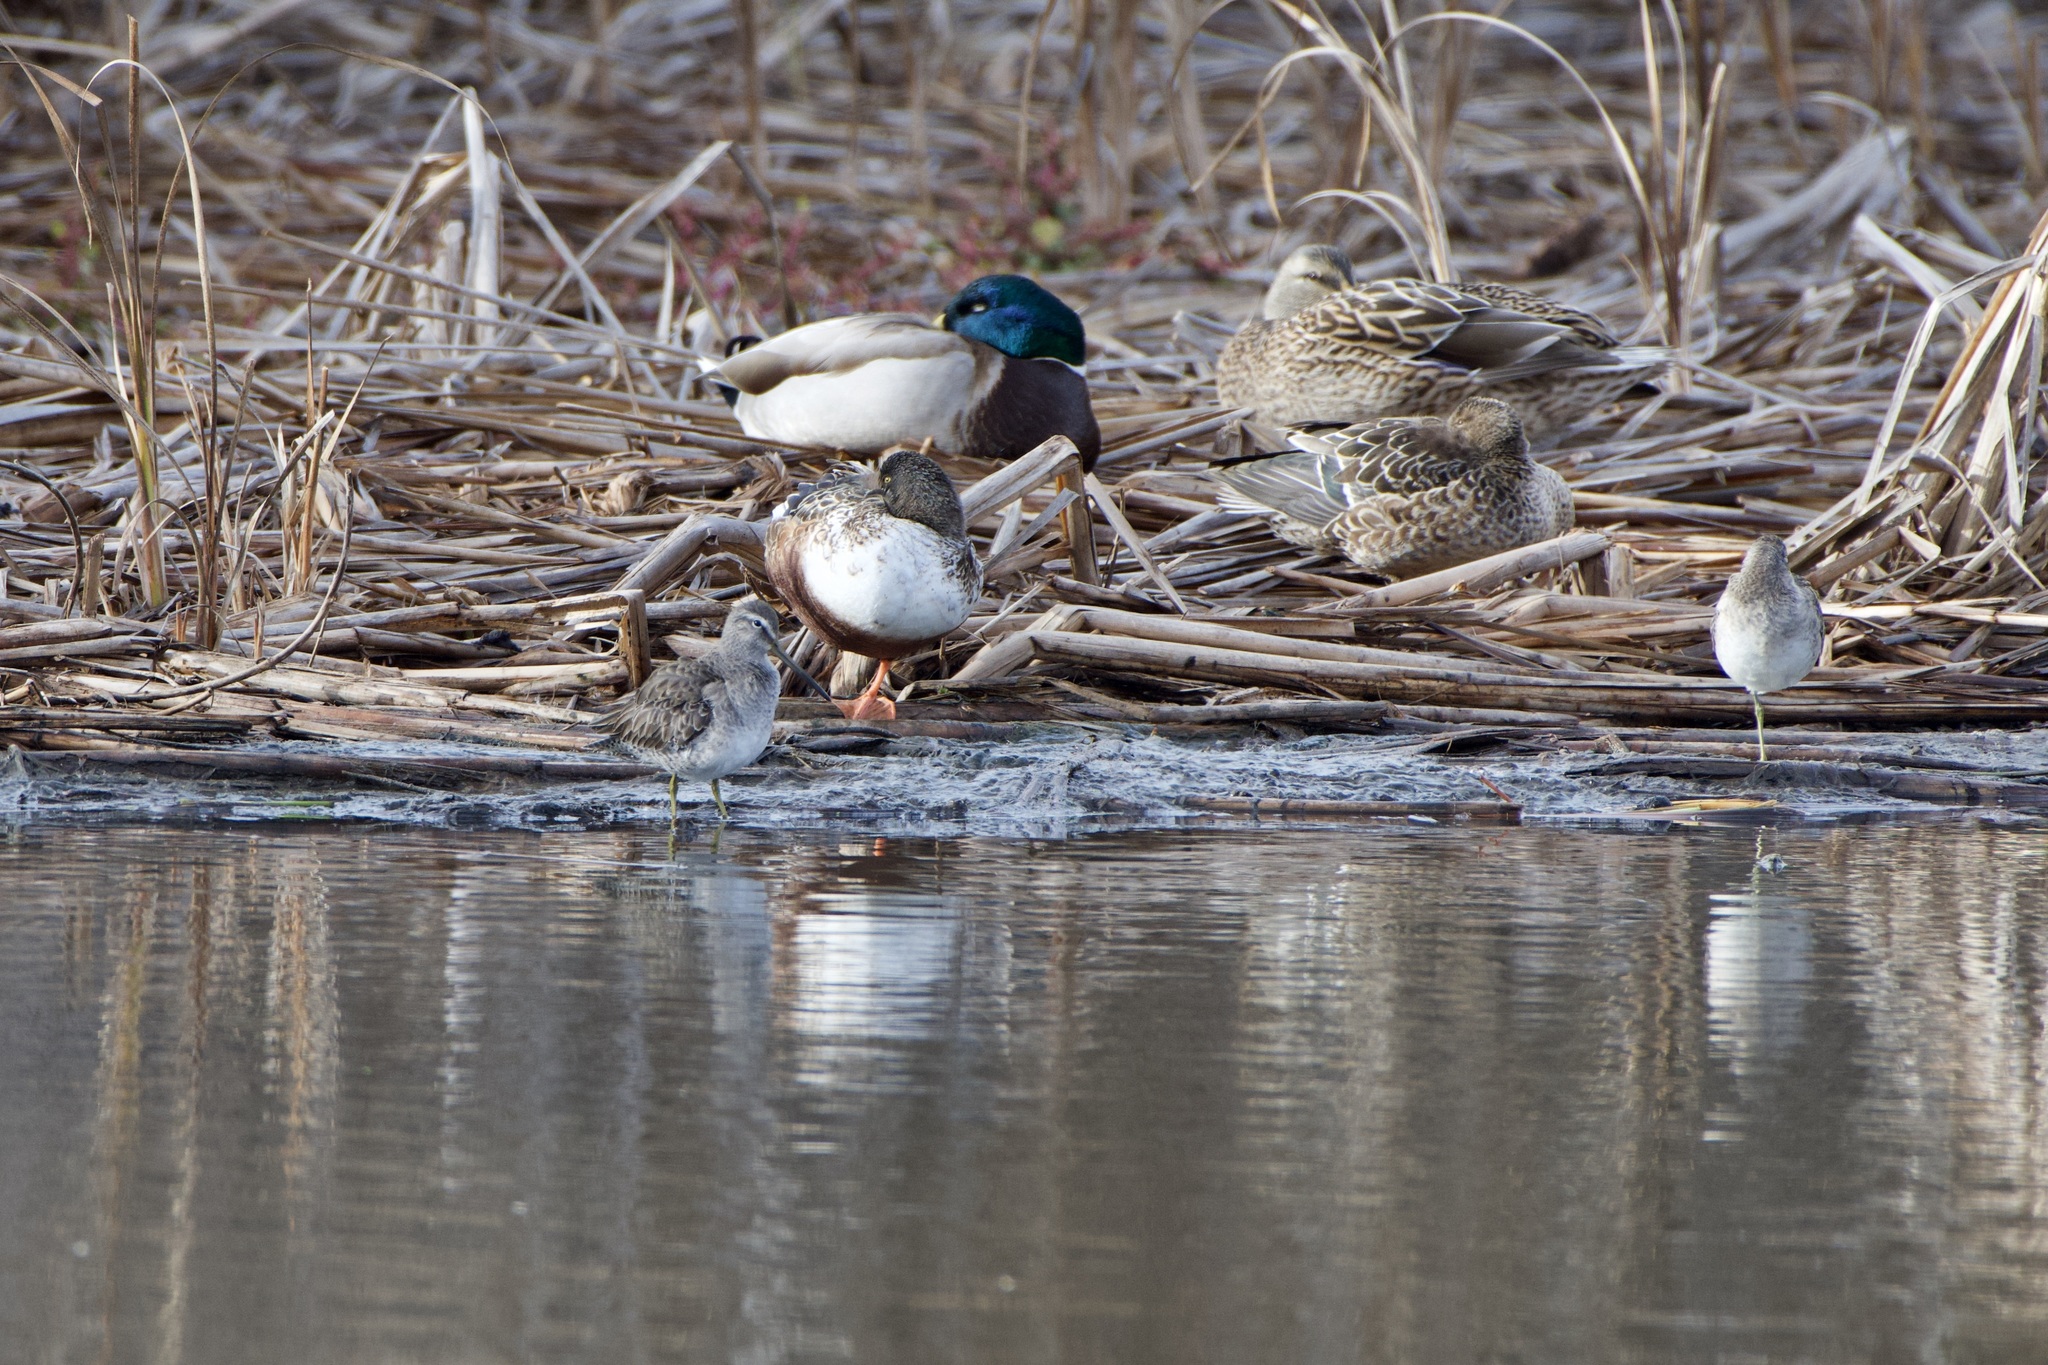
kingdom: Animalia
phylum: Chordata
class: Aves
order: Charadriiformes
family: Scolopacidae
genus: Limnodromus
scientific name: Limnodromus scolopaceus
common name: Long-billed dowitcher
